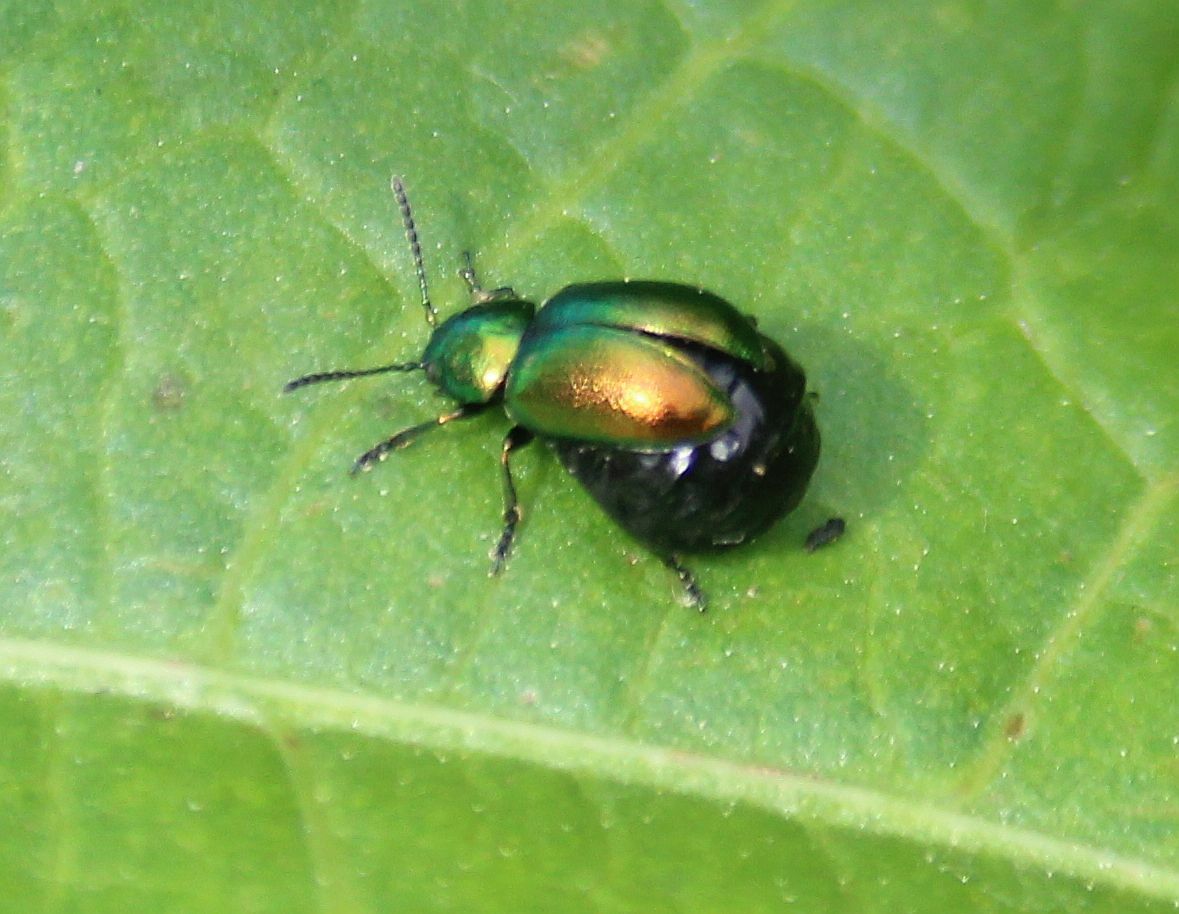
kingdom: Animalia
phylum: Arthropoda
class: Insecta
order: Coleoptera
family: Chrysomelidae
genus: Gastrophysa
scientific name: Gastrophysa viridula
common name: Green dock beetle
